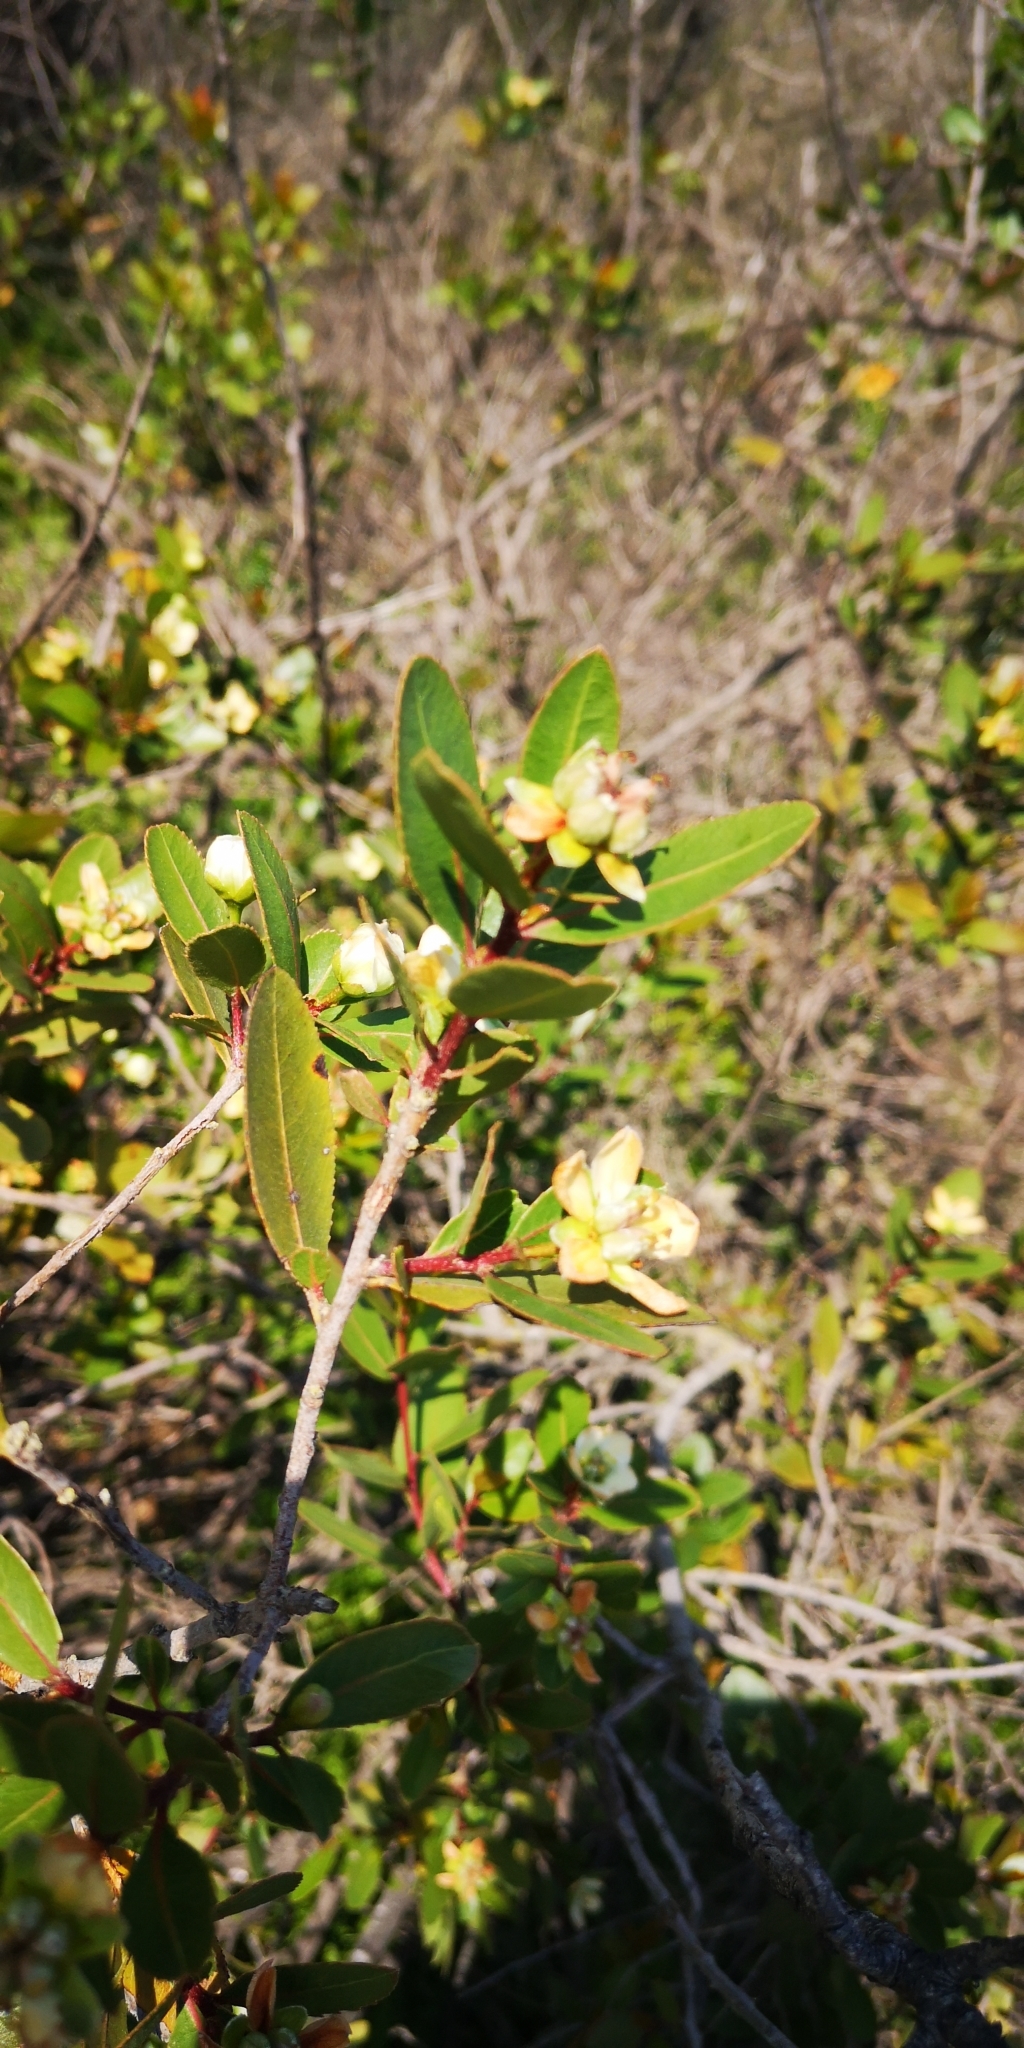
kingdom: Plantae
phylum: Tracheophyta
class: Magnoliopsida
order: Rosales
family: Rosaceae
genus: Kageneckia
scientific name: Kageneckia oblonga
